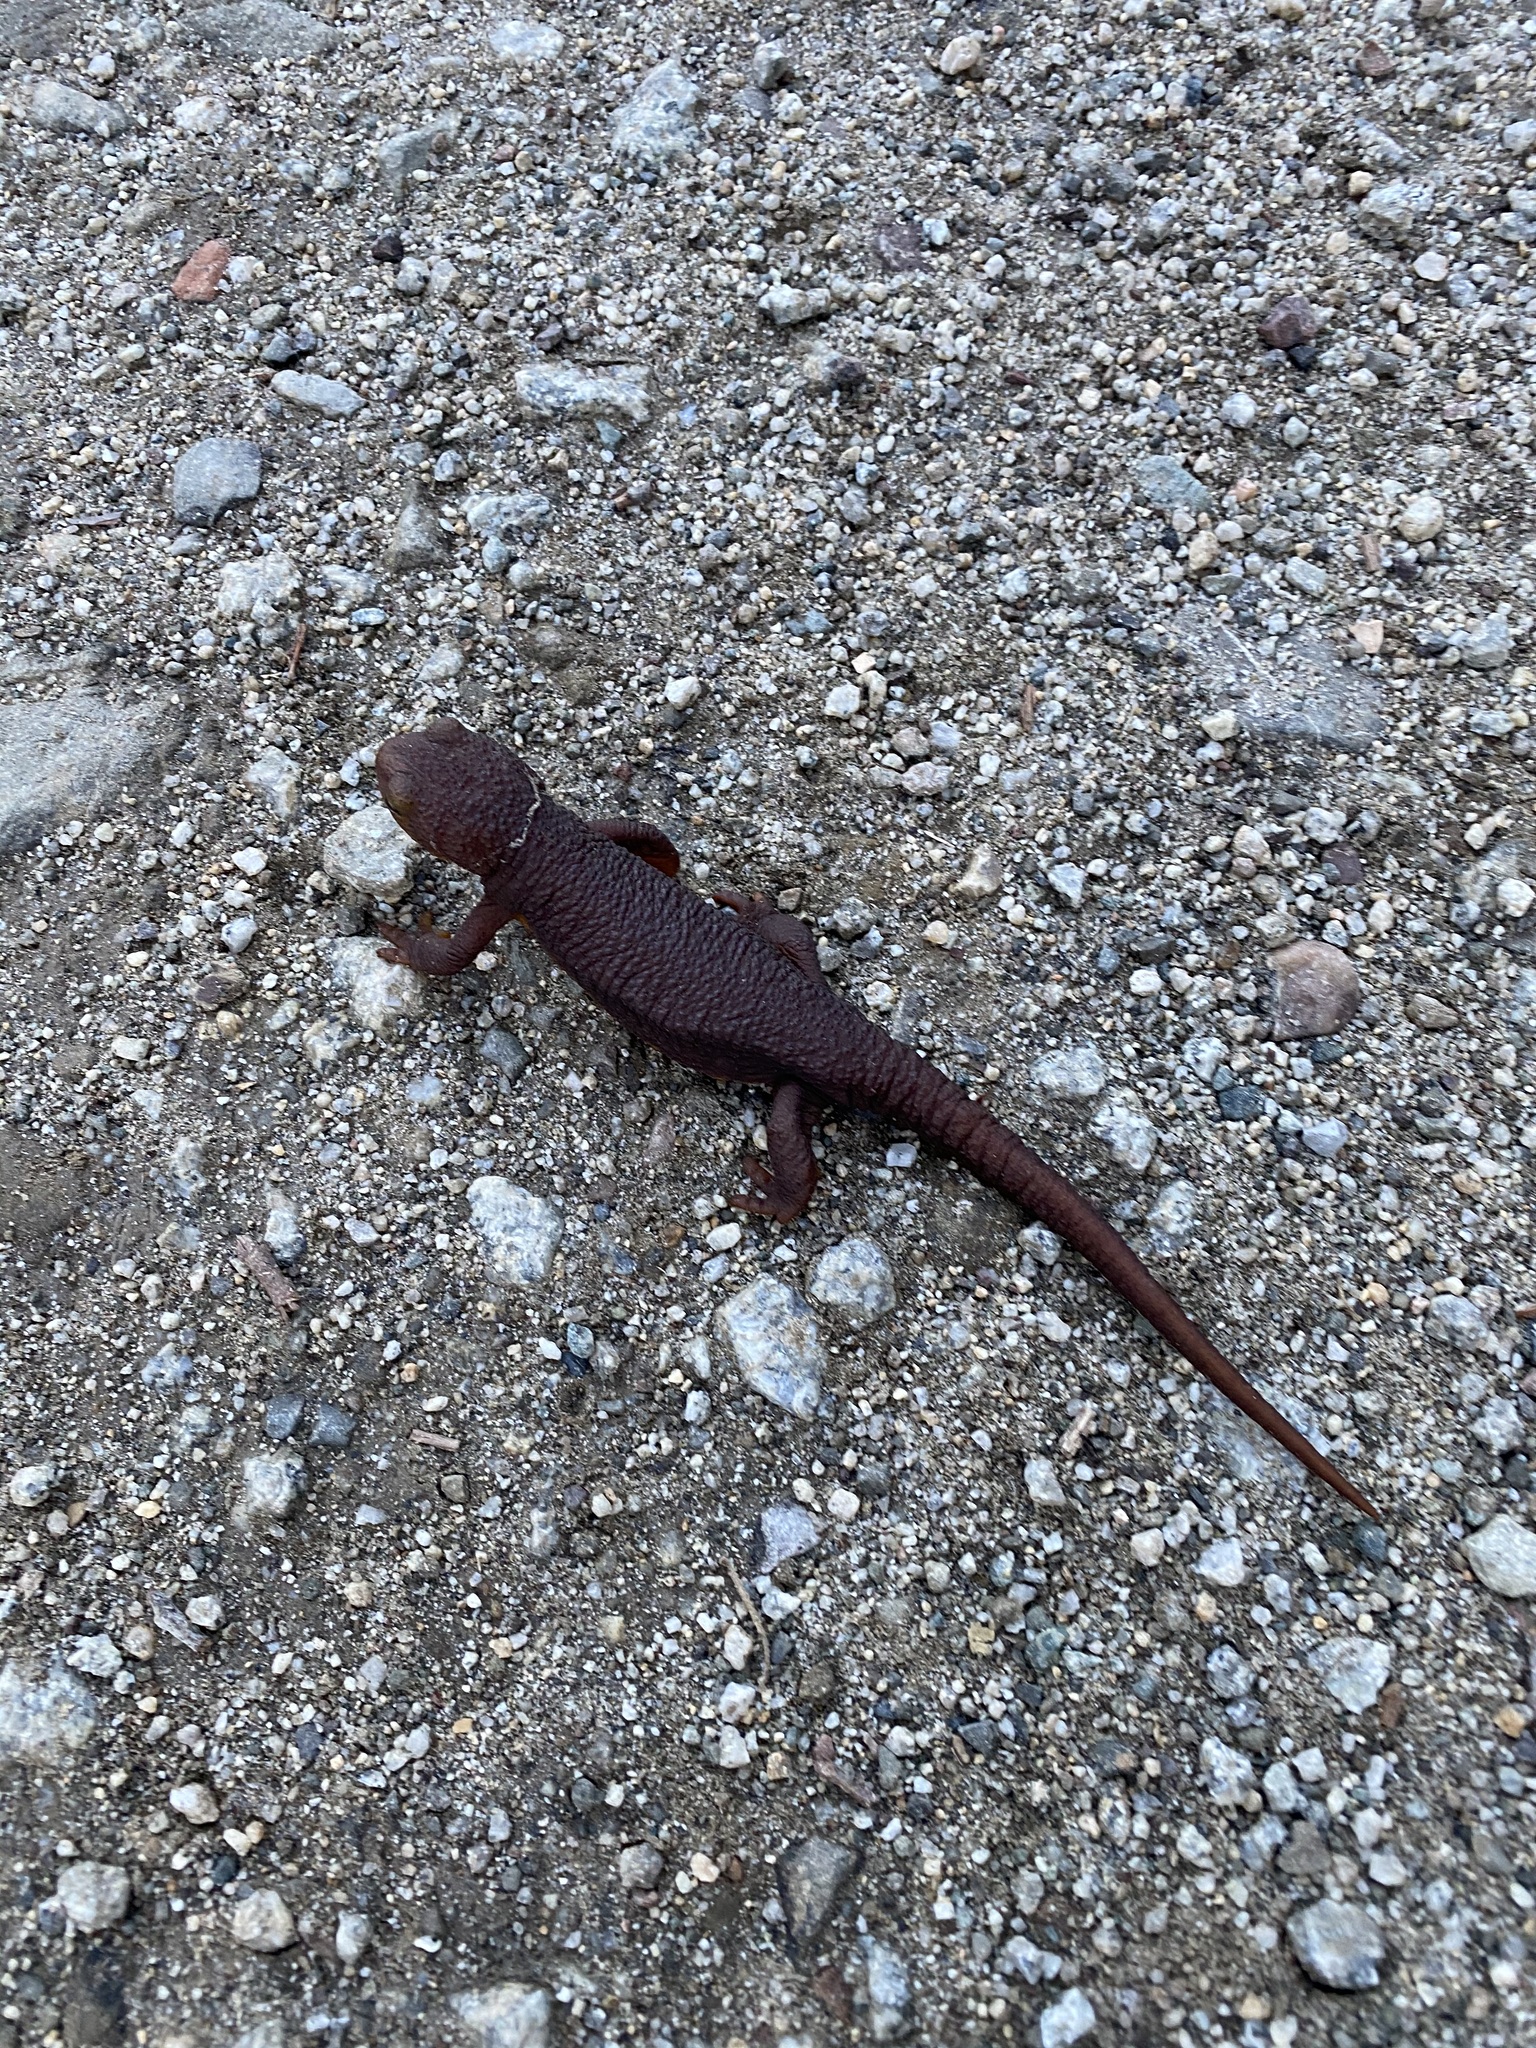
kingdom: Animalia
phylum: Chordata
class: Amphibia
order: Caudata
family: Salamandridae
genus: Taricha
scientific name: Taricha torosa
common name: California newt
